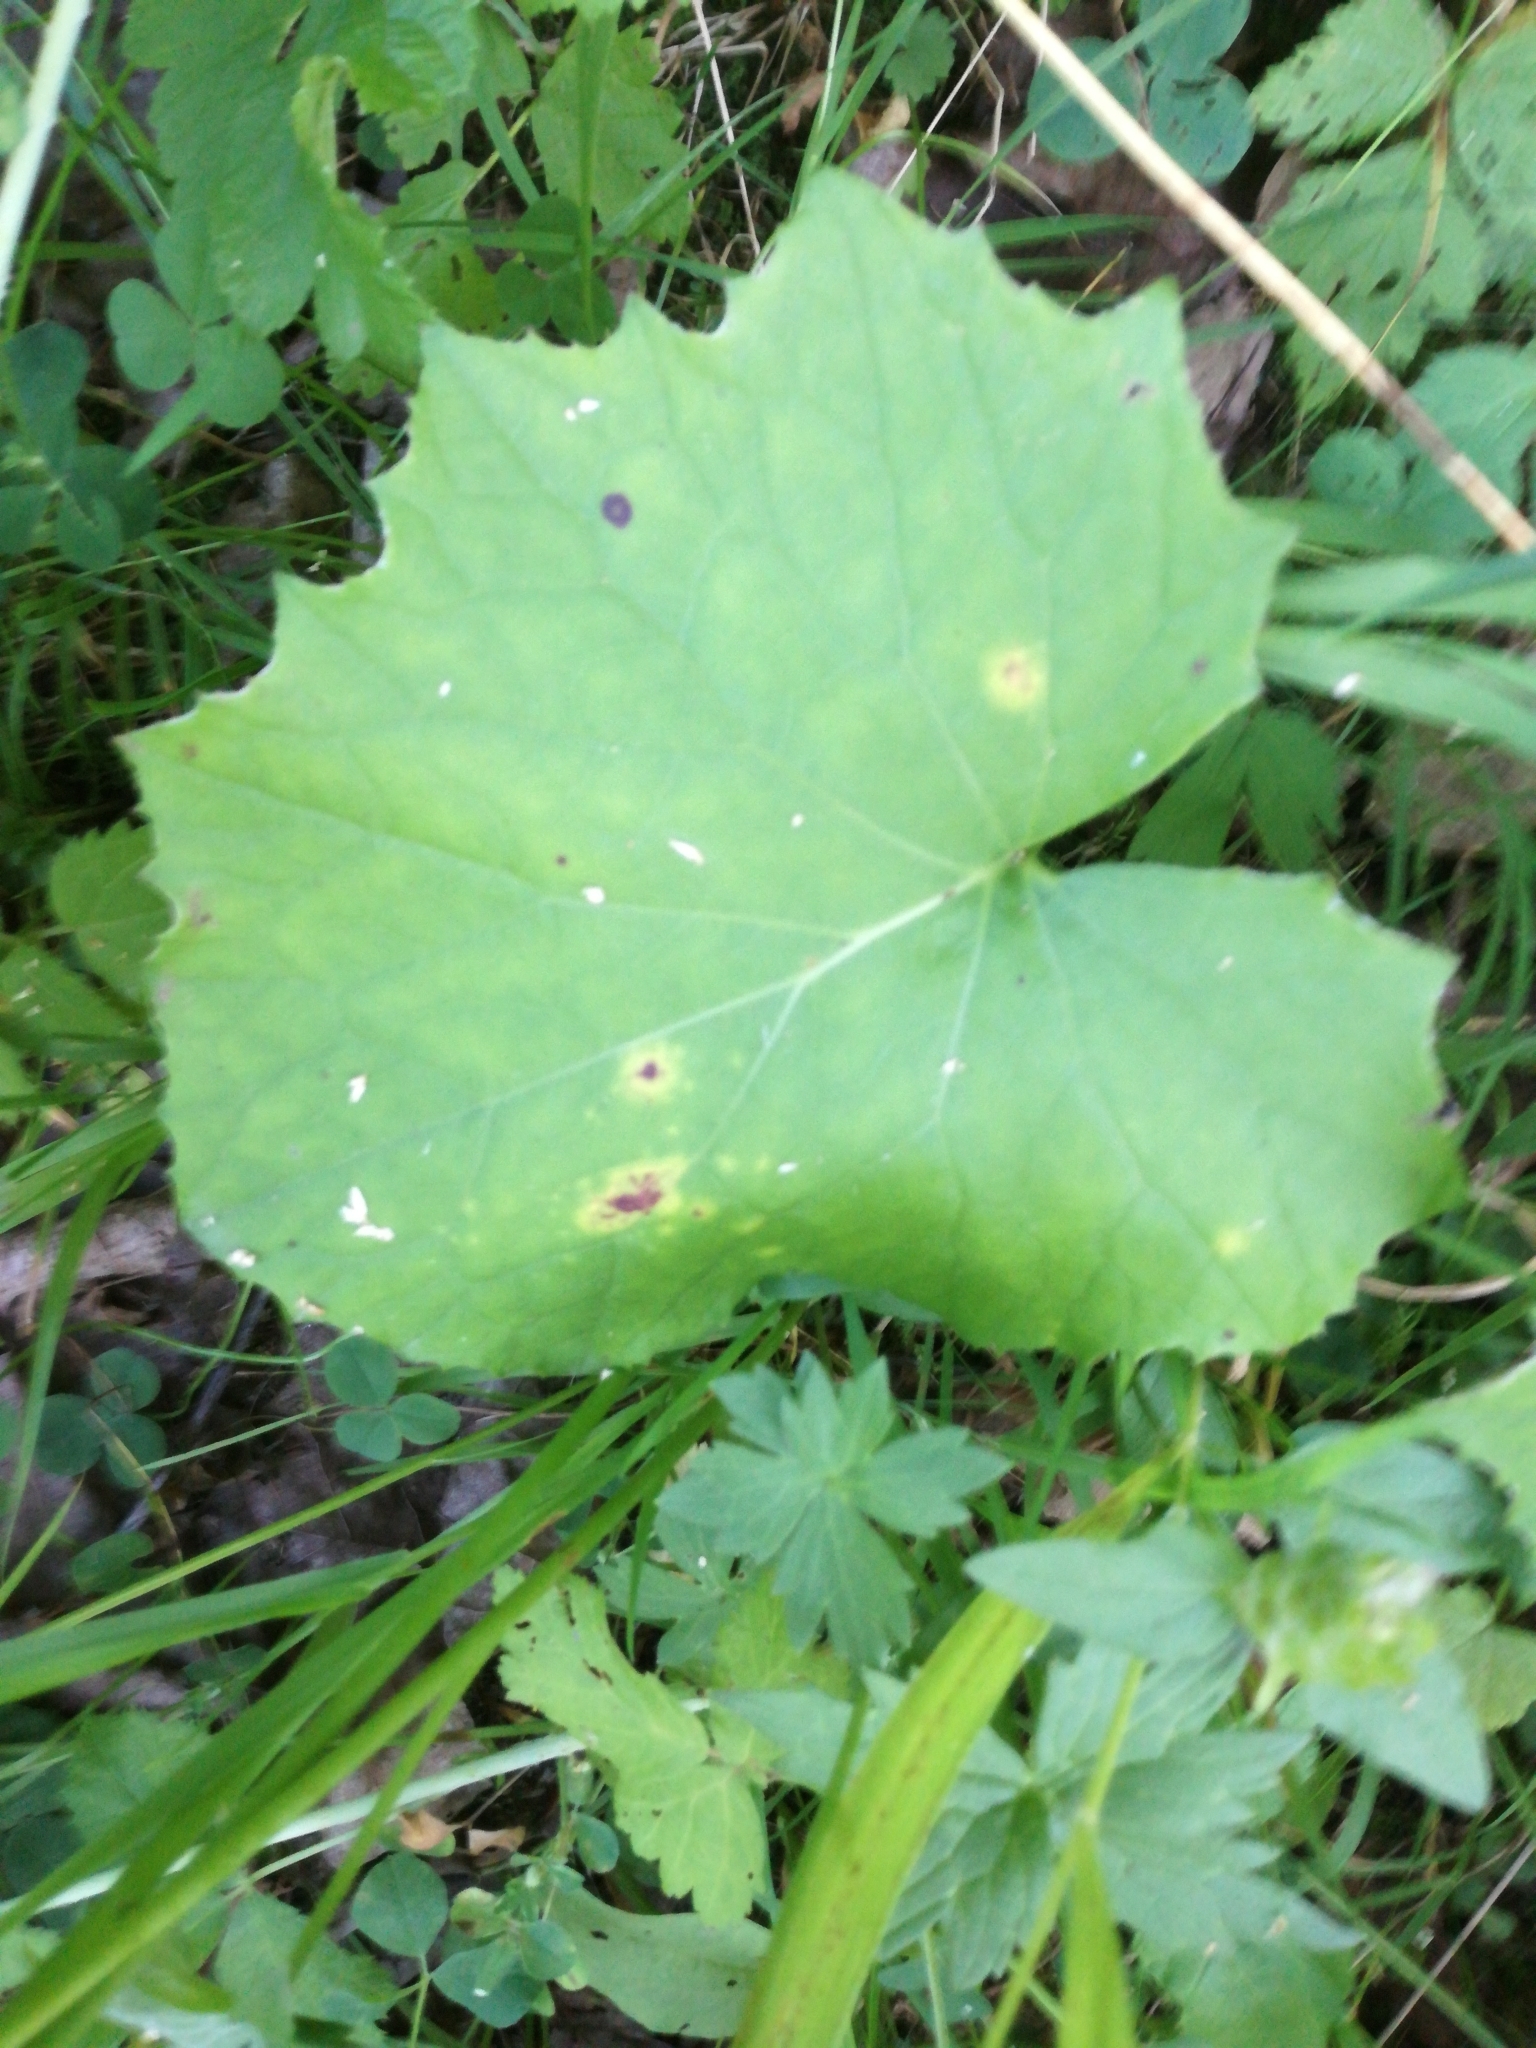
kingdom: Plantae
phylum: Tracheophyta
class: Magnoliopsida
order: Asterales
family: Asteraceae
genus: Tussilago
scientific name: Tussilago farfara
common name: Coltsfoot
